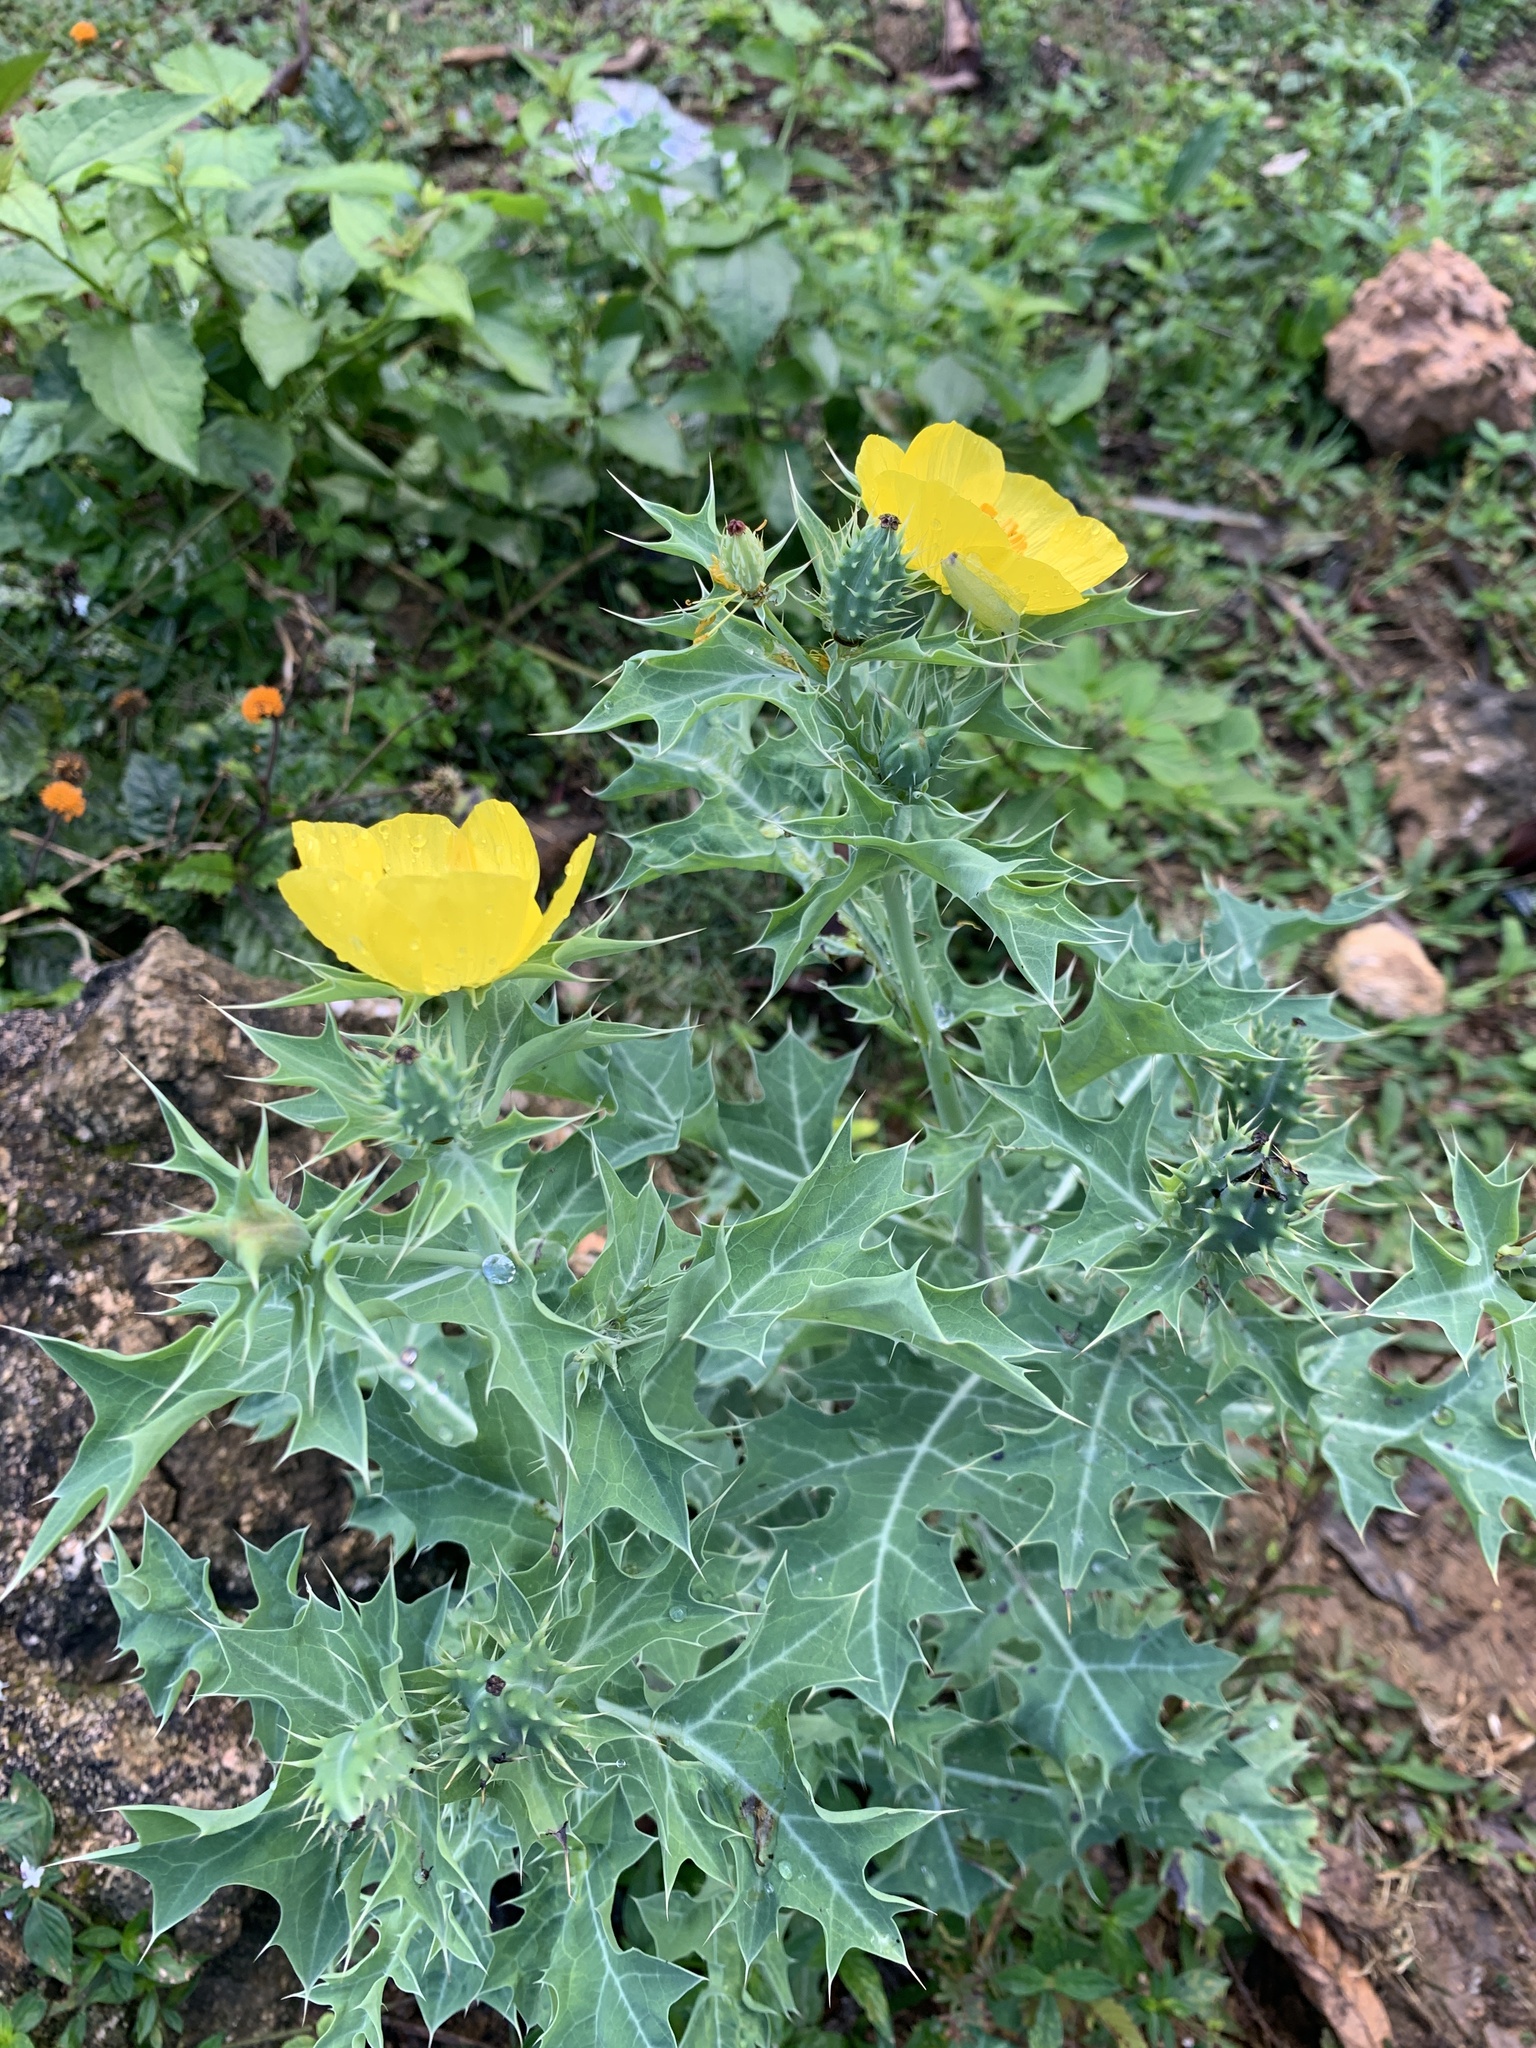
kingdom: Plantae
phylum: Tracheophyta
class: Magnoliopsida
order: Ranunculales
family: Papaveraceae
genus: Argemone
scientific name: Argemone mexicana
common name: Mexican poppy
